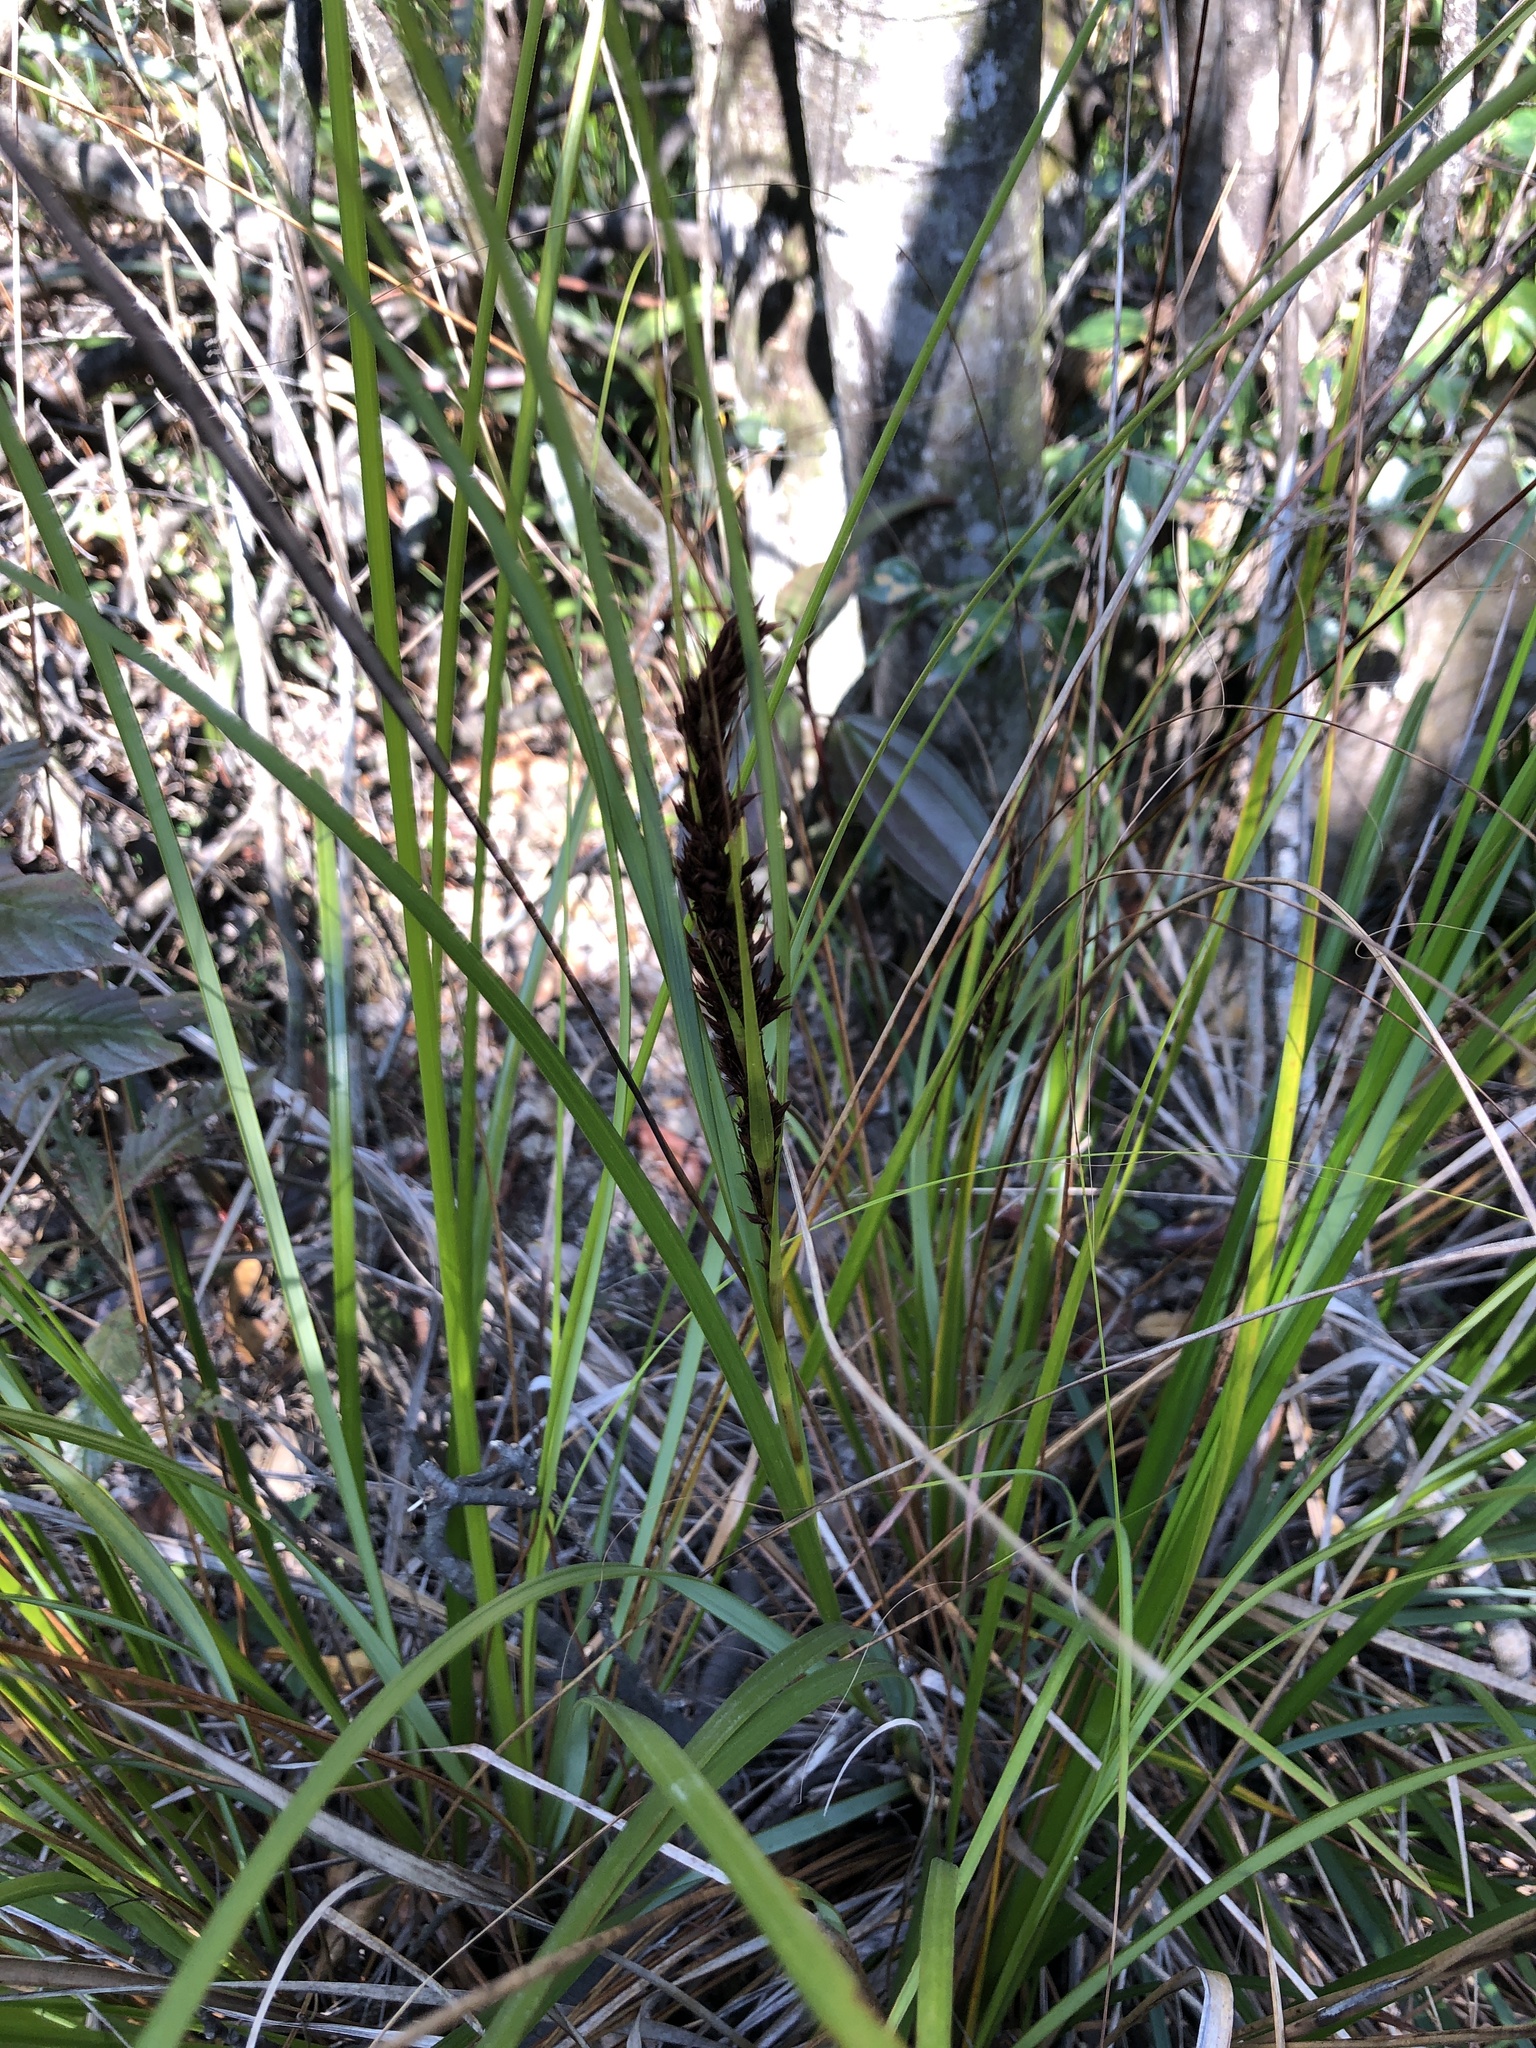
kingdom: Plantae
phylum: Tracheophyta
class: Liliopsida
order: Poales
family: Cyperaceae
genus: Gahnia
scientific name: Gahnia tristis
